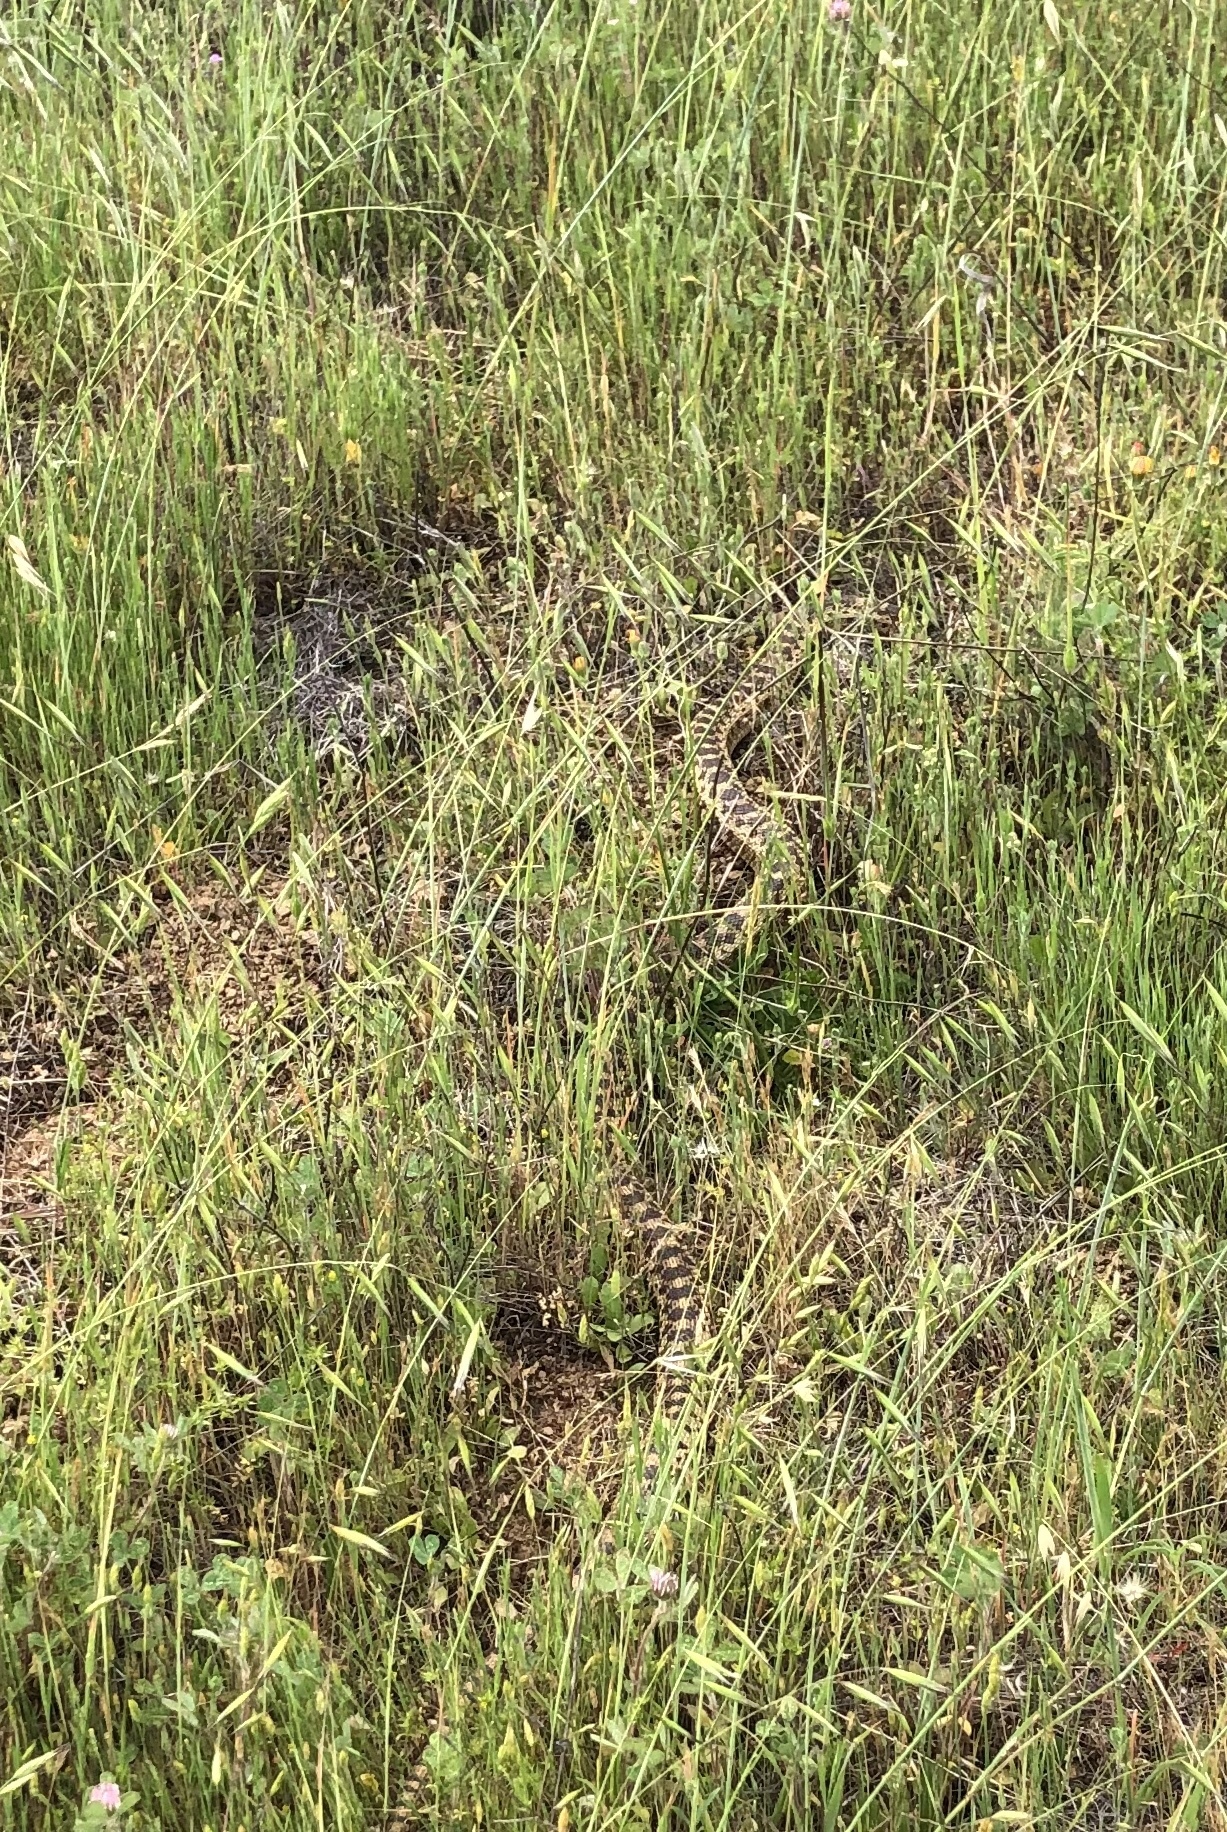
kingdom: Animalia
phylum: Chordata
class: Squamata
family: Colubridae
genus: Pituophis
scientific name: Pituophis catenifer
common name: Gopher snake
